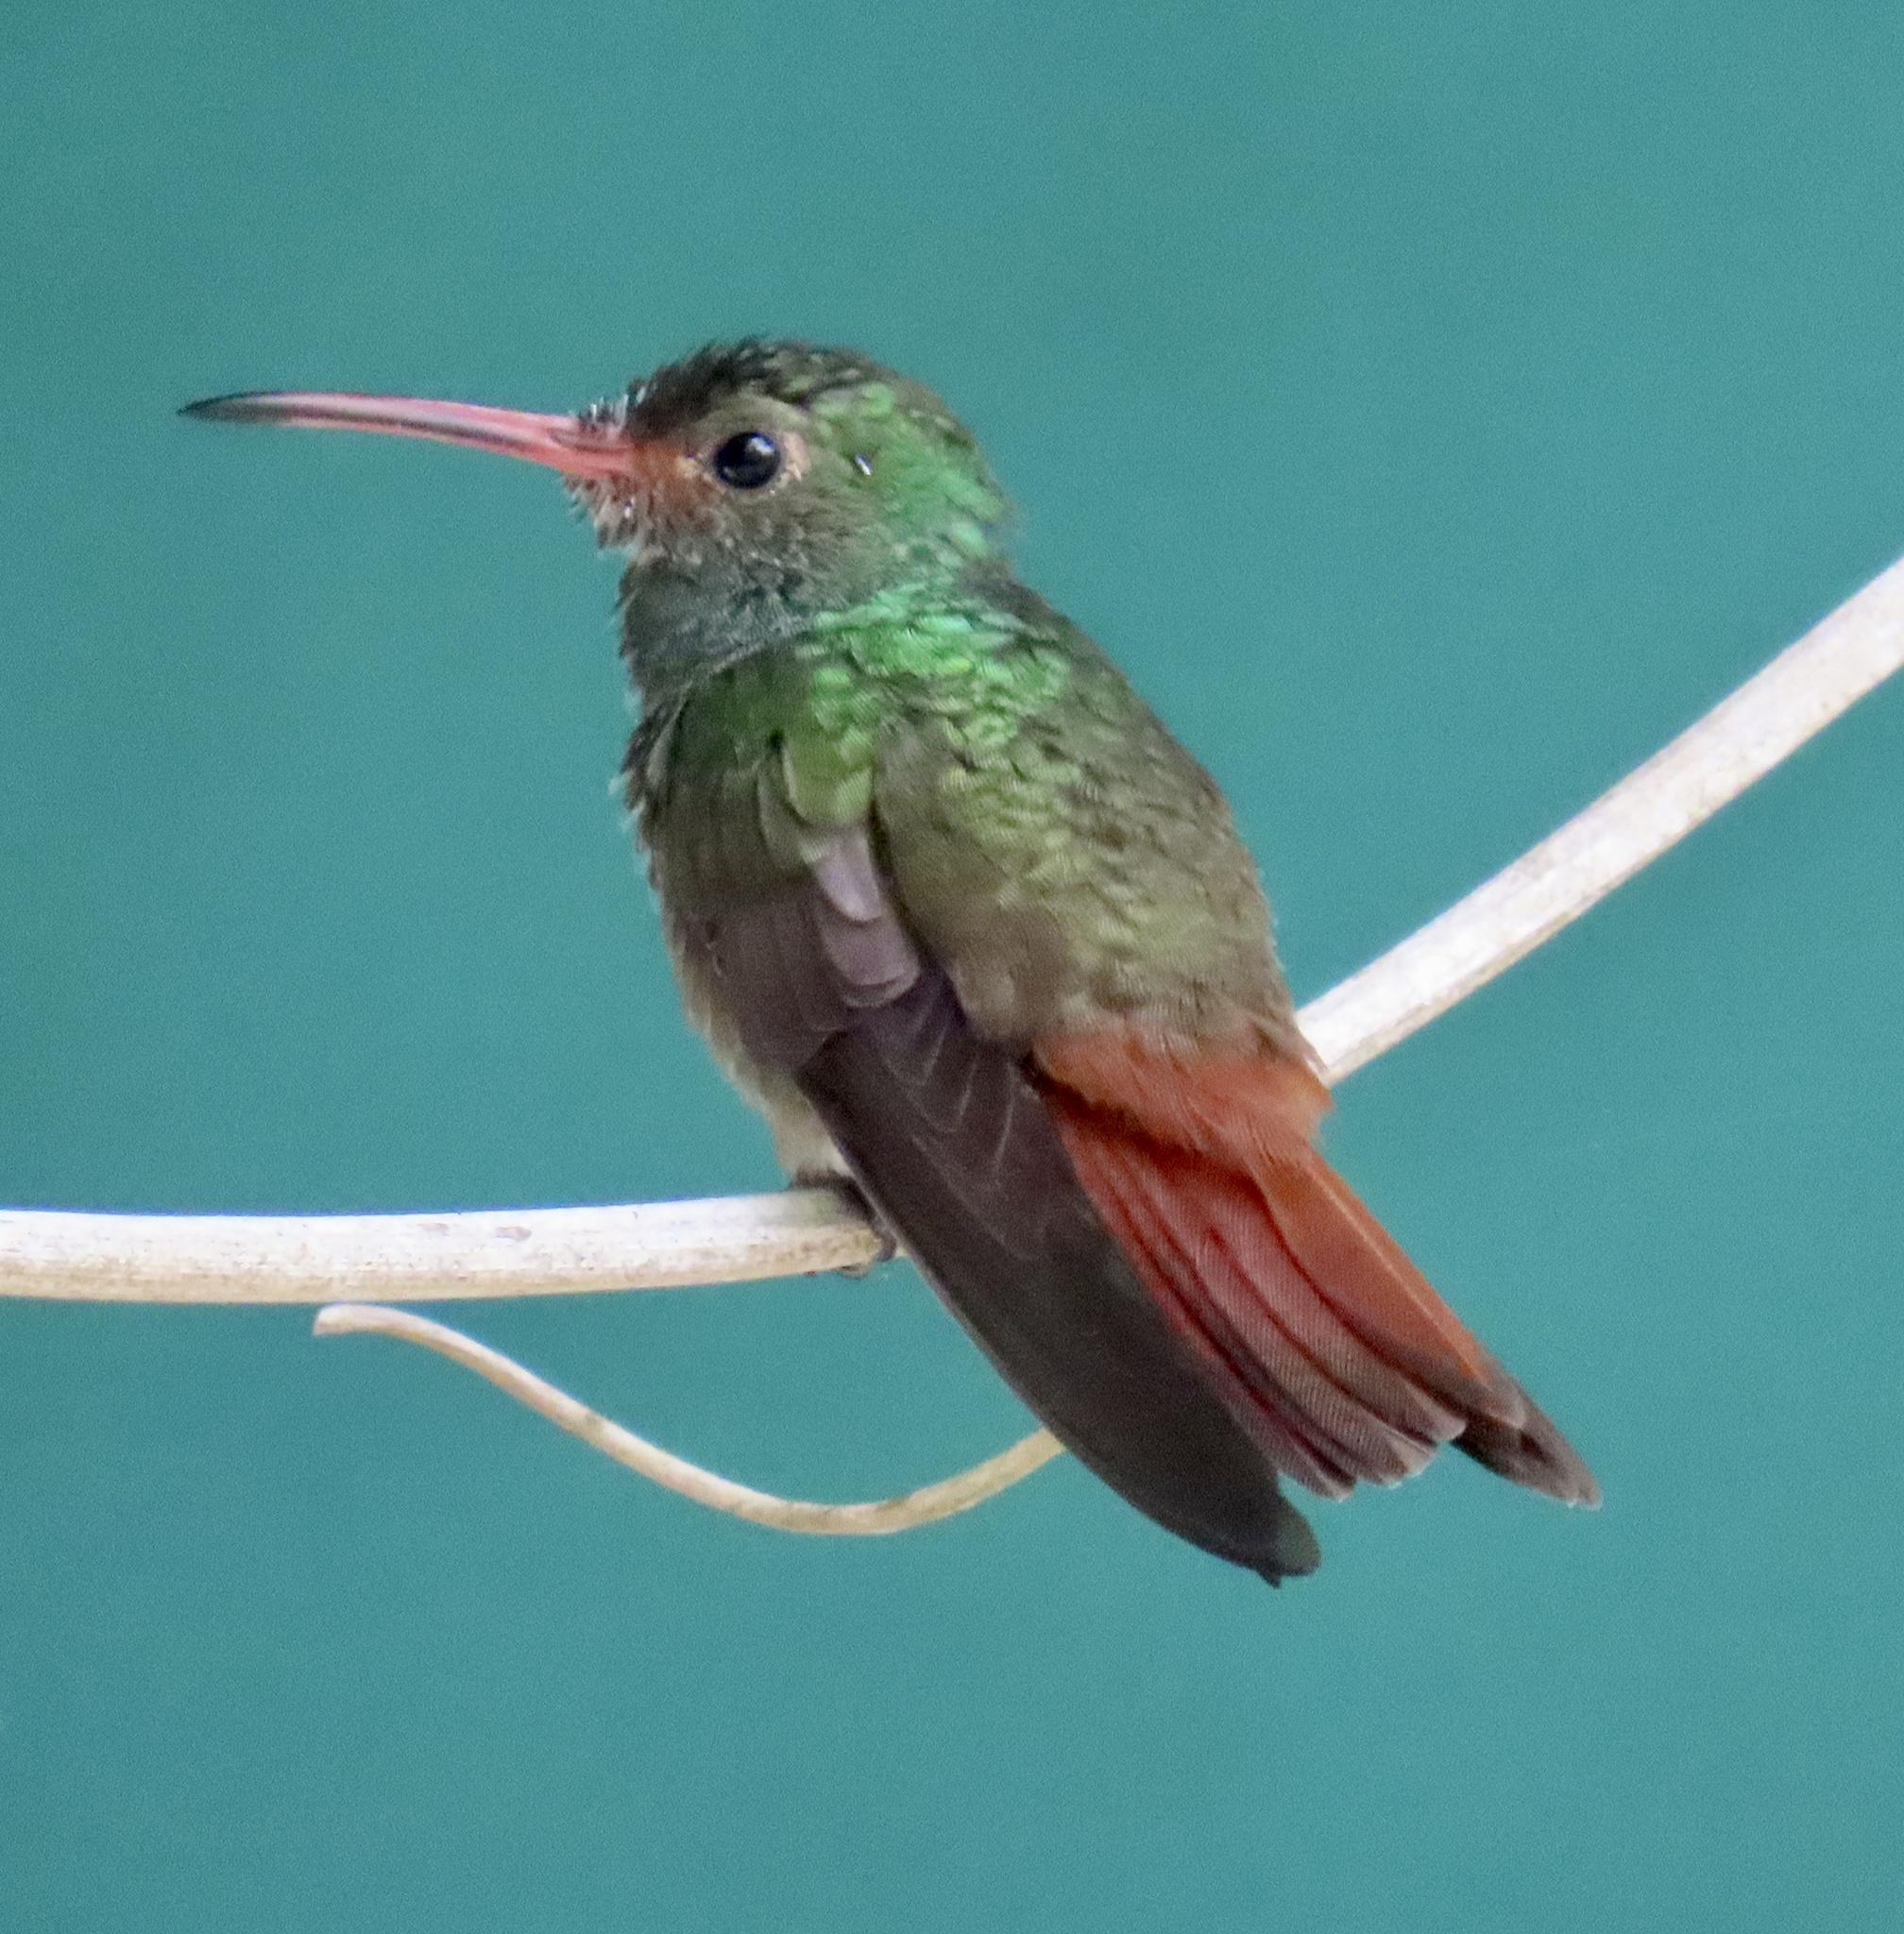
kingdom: Animalia
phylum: Chordata
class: Aves
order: Apodiformes
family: Trochilidae
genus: Amazilia
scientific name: Amazilia tzacatl
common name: Rufous-tailed hummingbird
